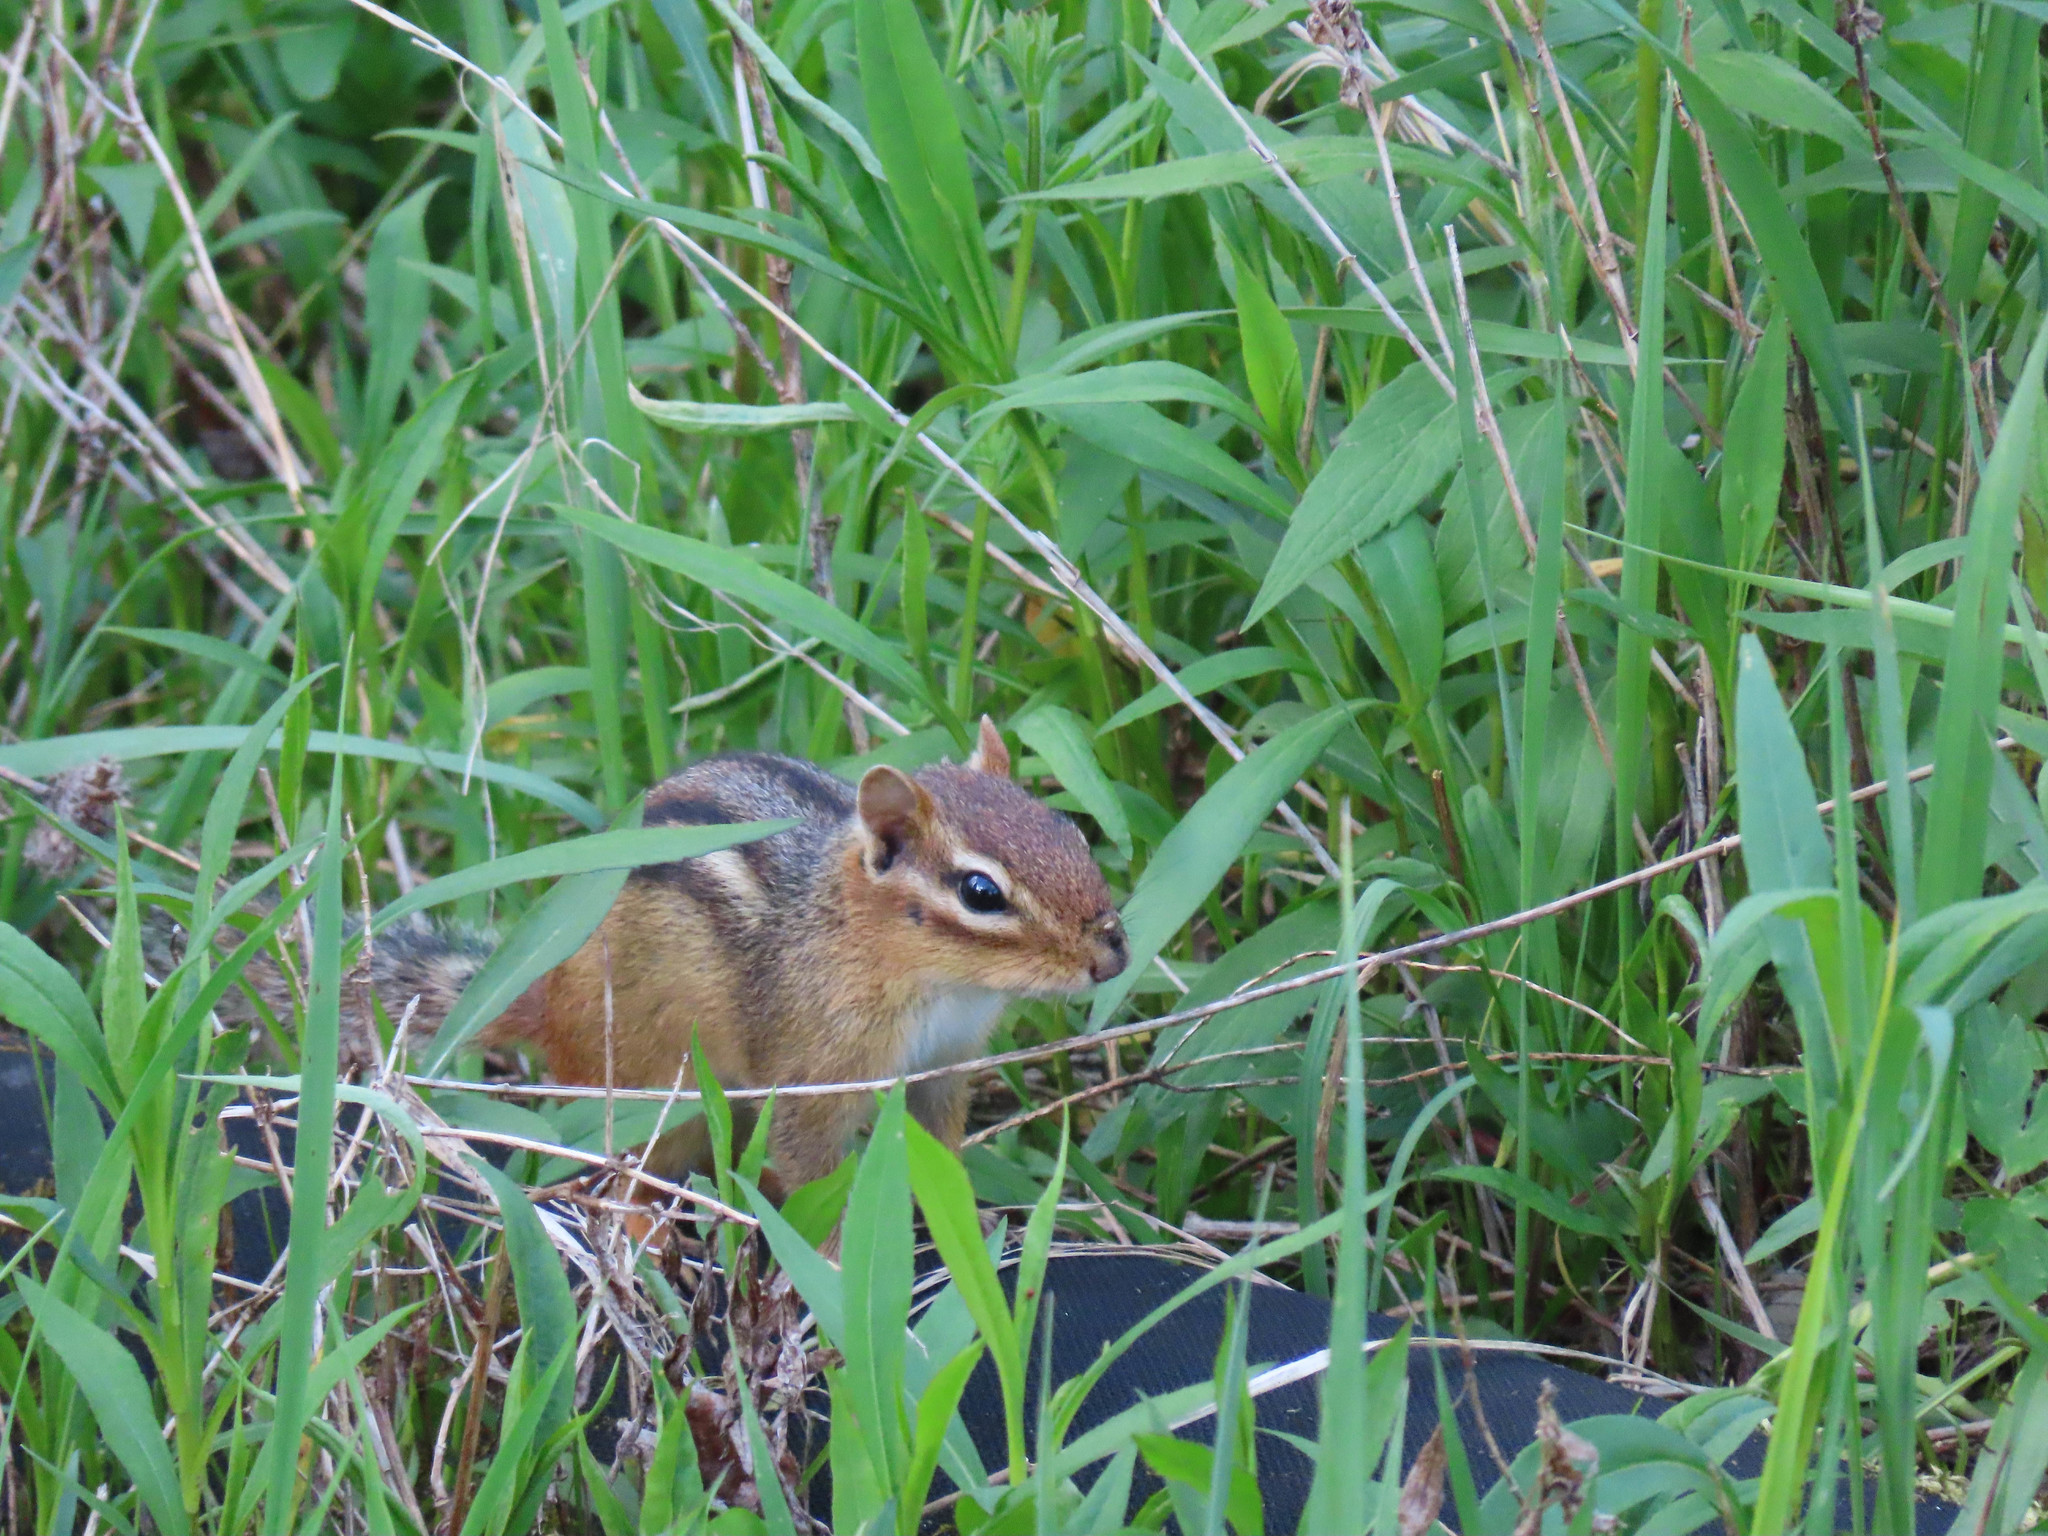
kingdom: Animalia
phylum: Chordata
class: Mammalia
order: Rodentia
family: Sciuridae
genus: Tamias
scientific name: Tamias striatus
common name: Eastern chipmunk
